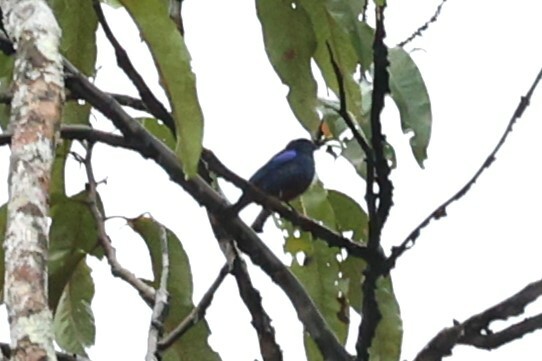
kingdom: Animalia
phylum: Chordata
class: Aves
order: Passeriformes
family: Thraupidae
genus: Tangara
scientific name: Tangara velia
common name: Opal-rumped tanager
